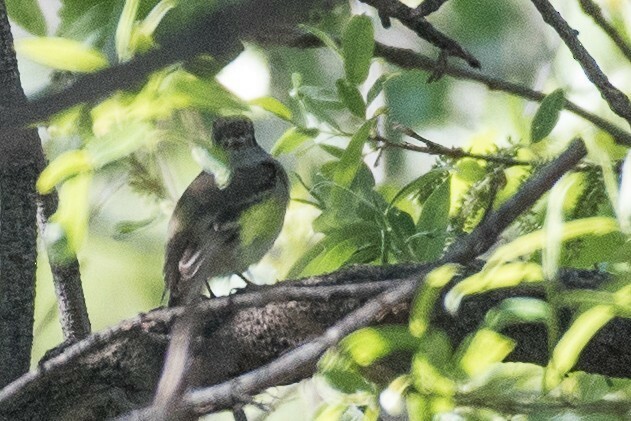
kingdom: Animalia
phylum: Chordata
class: Aves
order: Passeriformes
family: Tyrannidae
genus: Empidonax
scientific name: Empidonax oberholseri
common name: Dusky flycatcher
